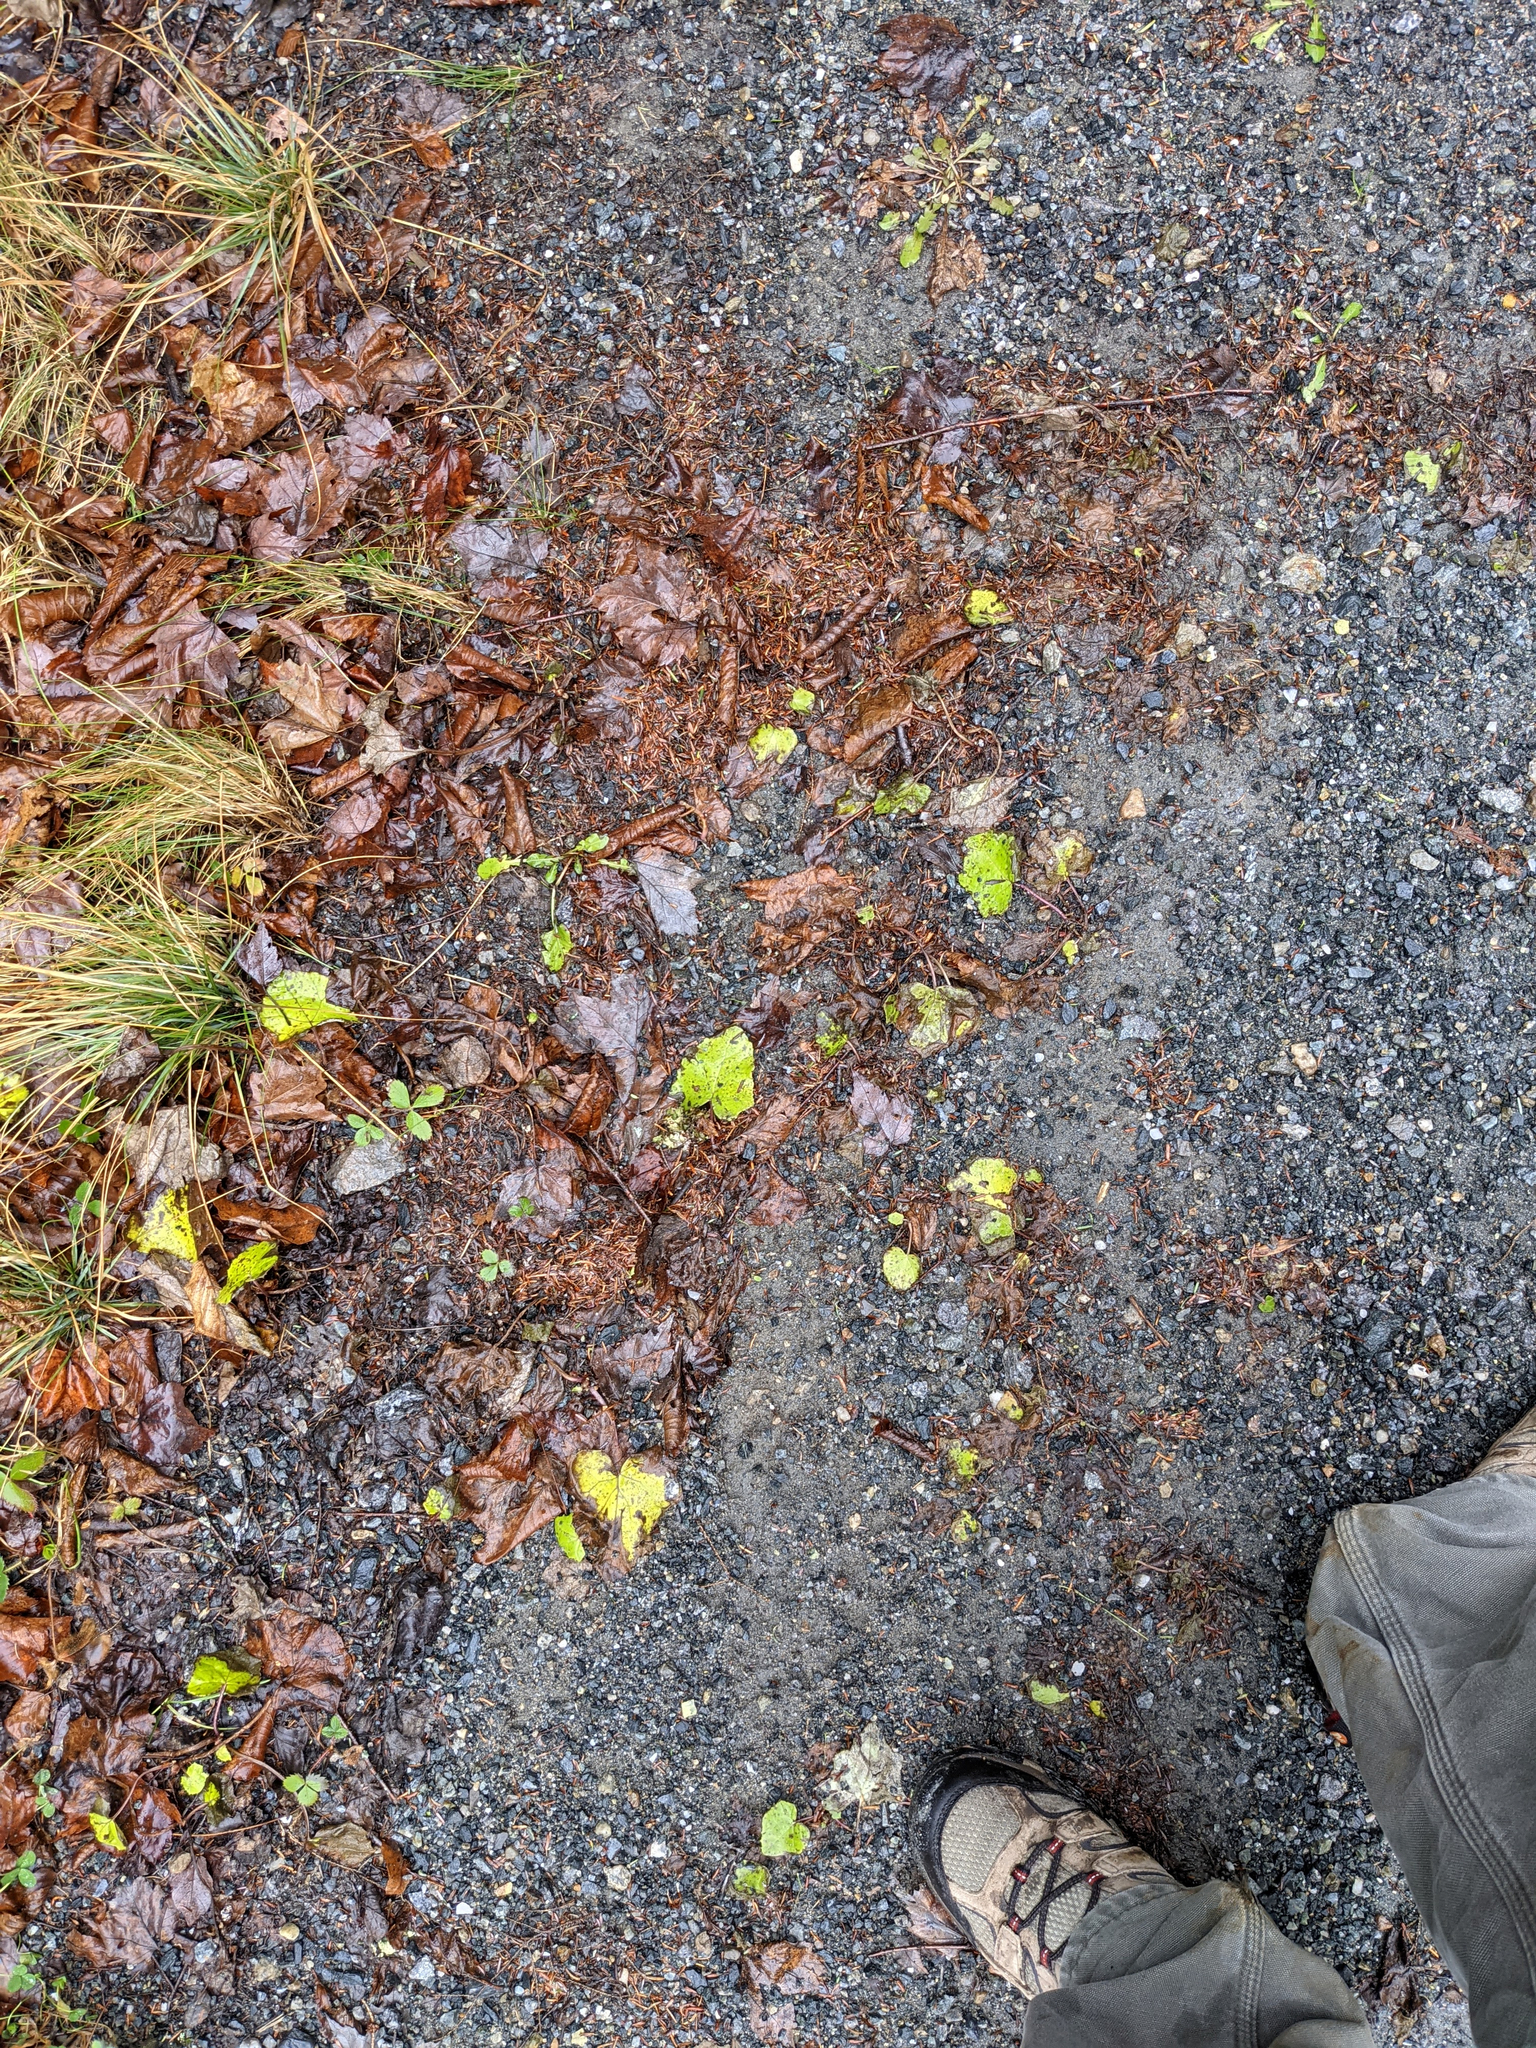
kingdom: Plantae
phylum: Tracheophyta
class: Magnoliopsida
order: Asterales
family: Asteraceae
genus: Tussilago
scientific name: Tussilago farfara
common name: Coltsfoot
